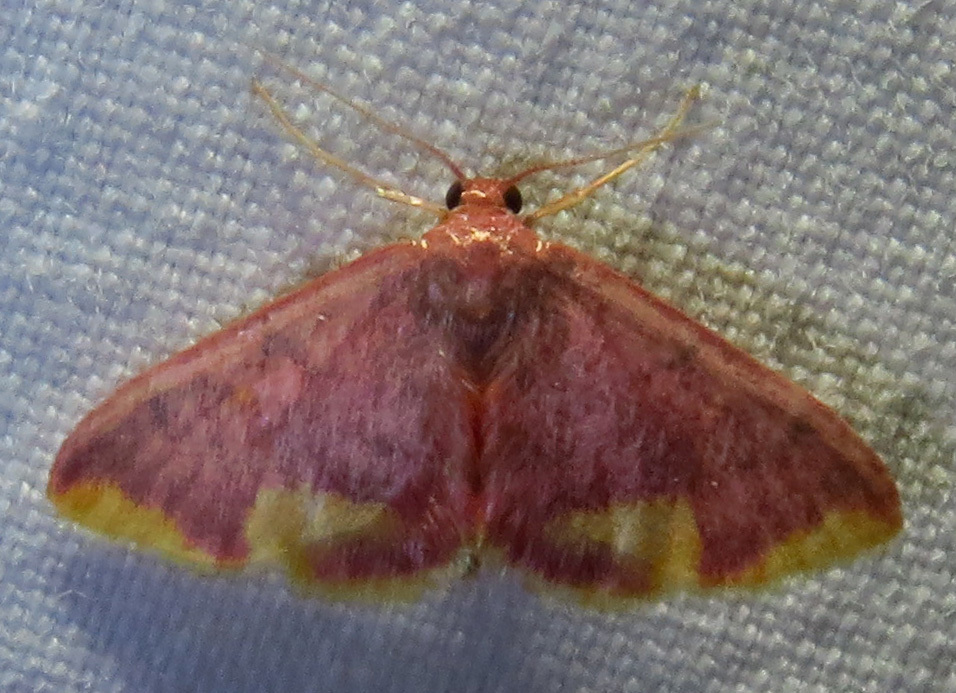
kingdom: Animalia
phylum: Arthropoda
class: Insecta
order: Lepidoptera
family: Geometridae
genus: Lophosis
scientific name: Lophosis labeculata
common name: Stained lophosis moth
